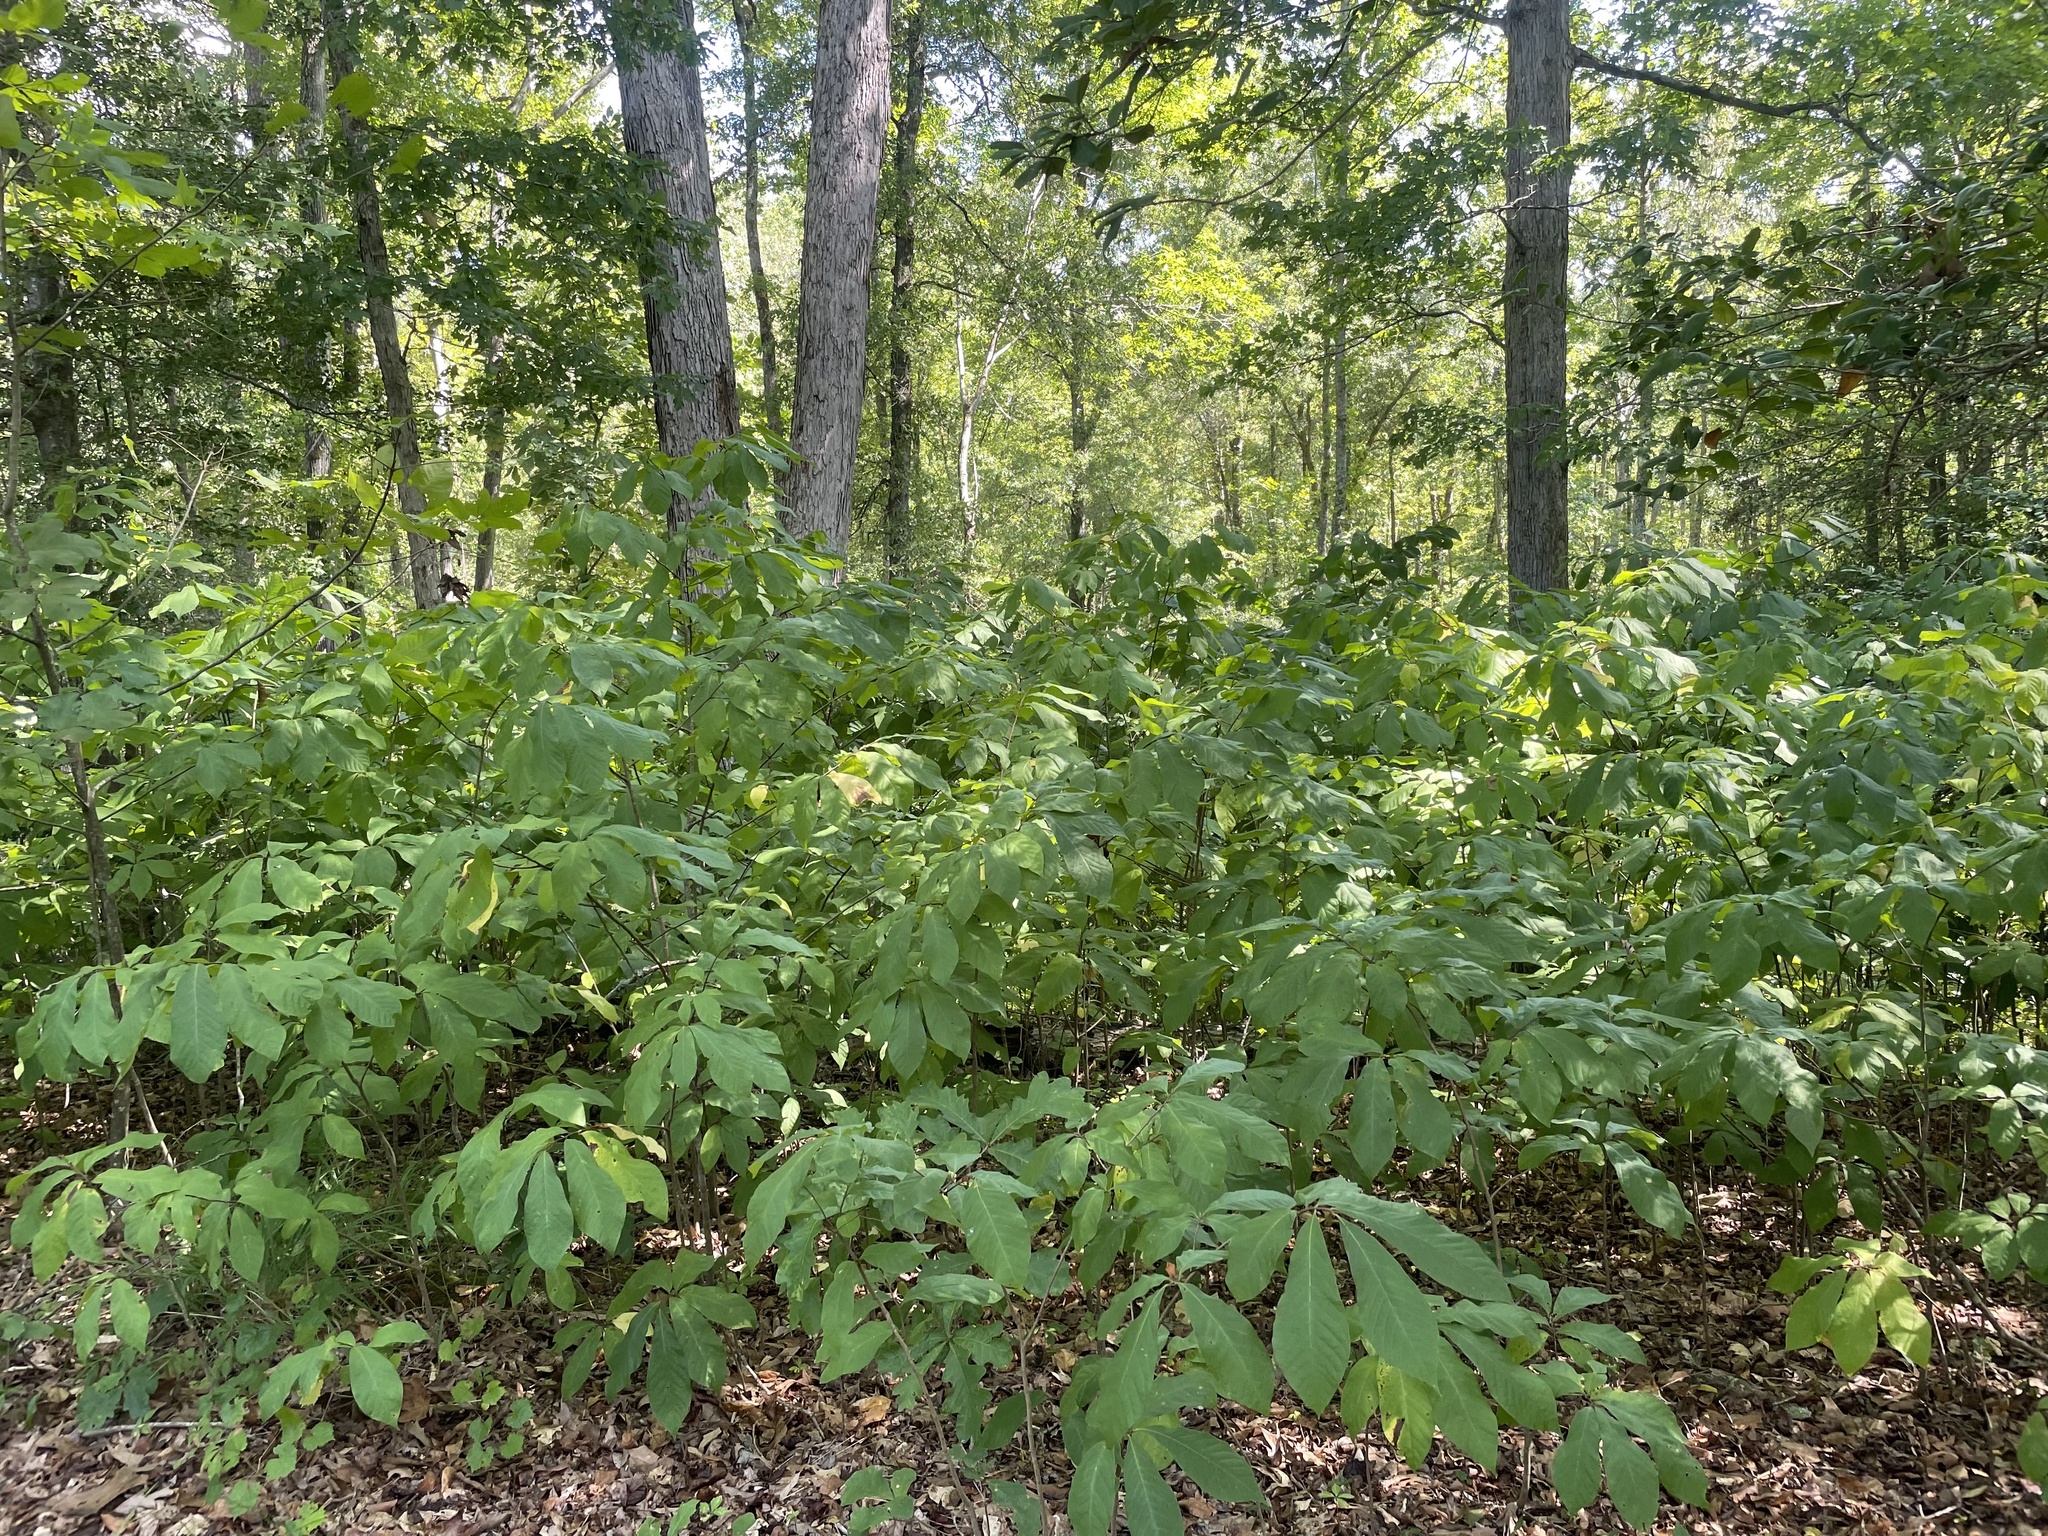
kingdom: Plantae
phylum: Tracheophyta
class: Magnoliopsida
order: Magnoliales
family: Annonaceae
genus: Asimina
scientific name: Asimina triloba
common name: Dog-banana
